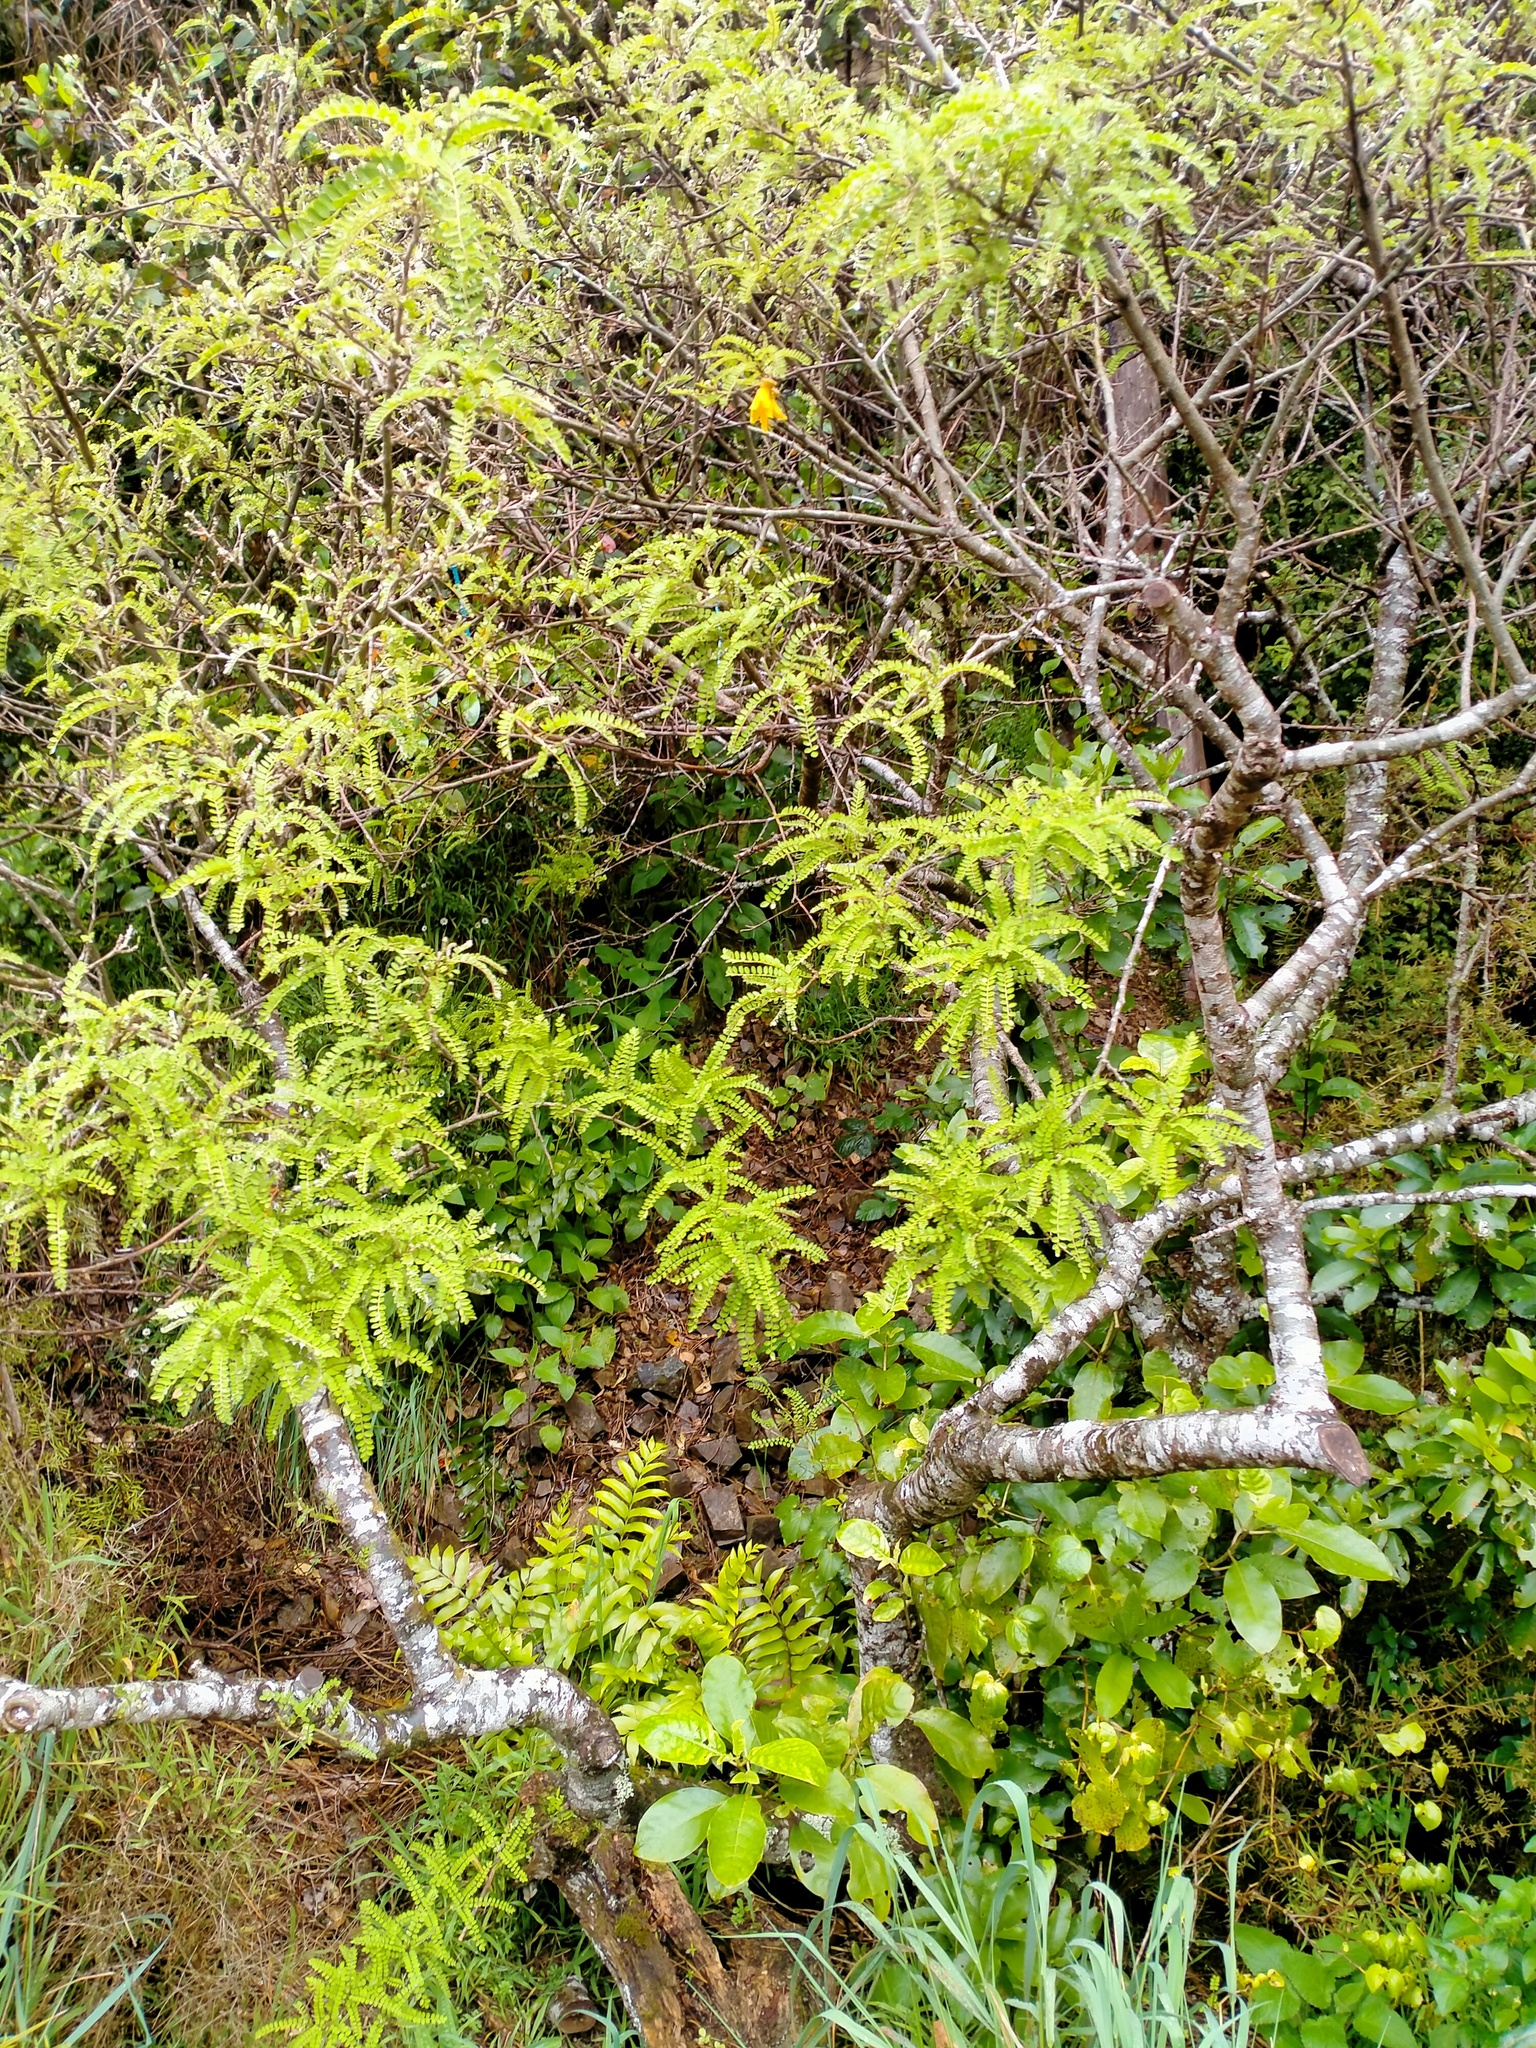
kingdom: Plantae
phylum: Tracheophyta
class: Magnoliopsida
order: Fabales
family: Fabaceae
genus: Sophora
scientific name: Sophora microphylla
